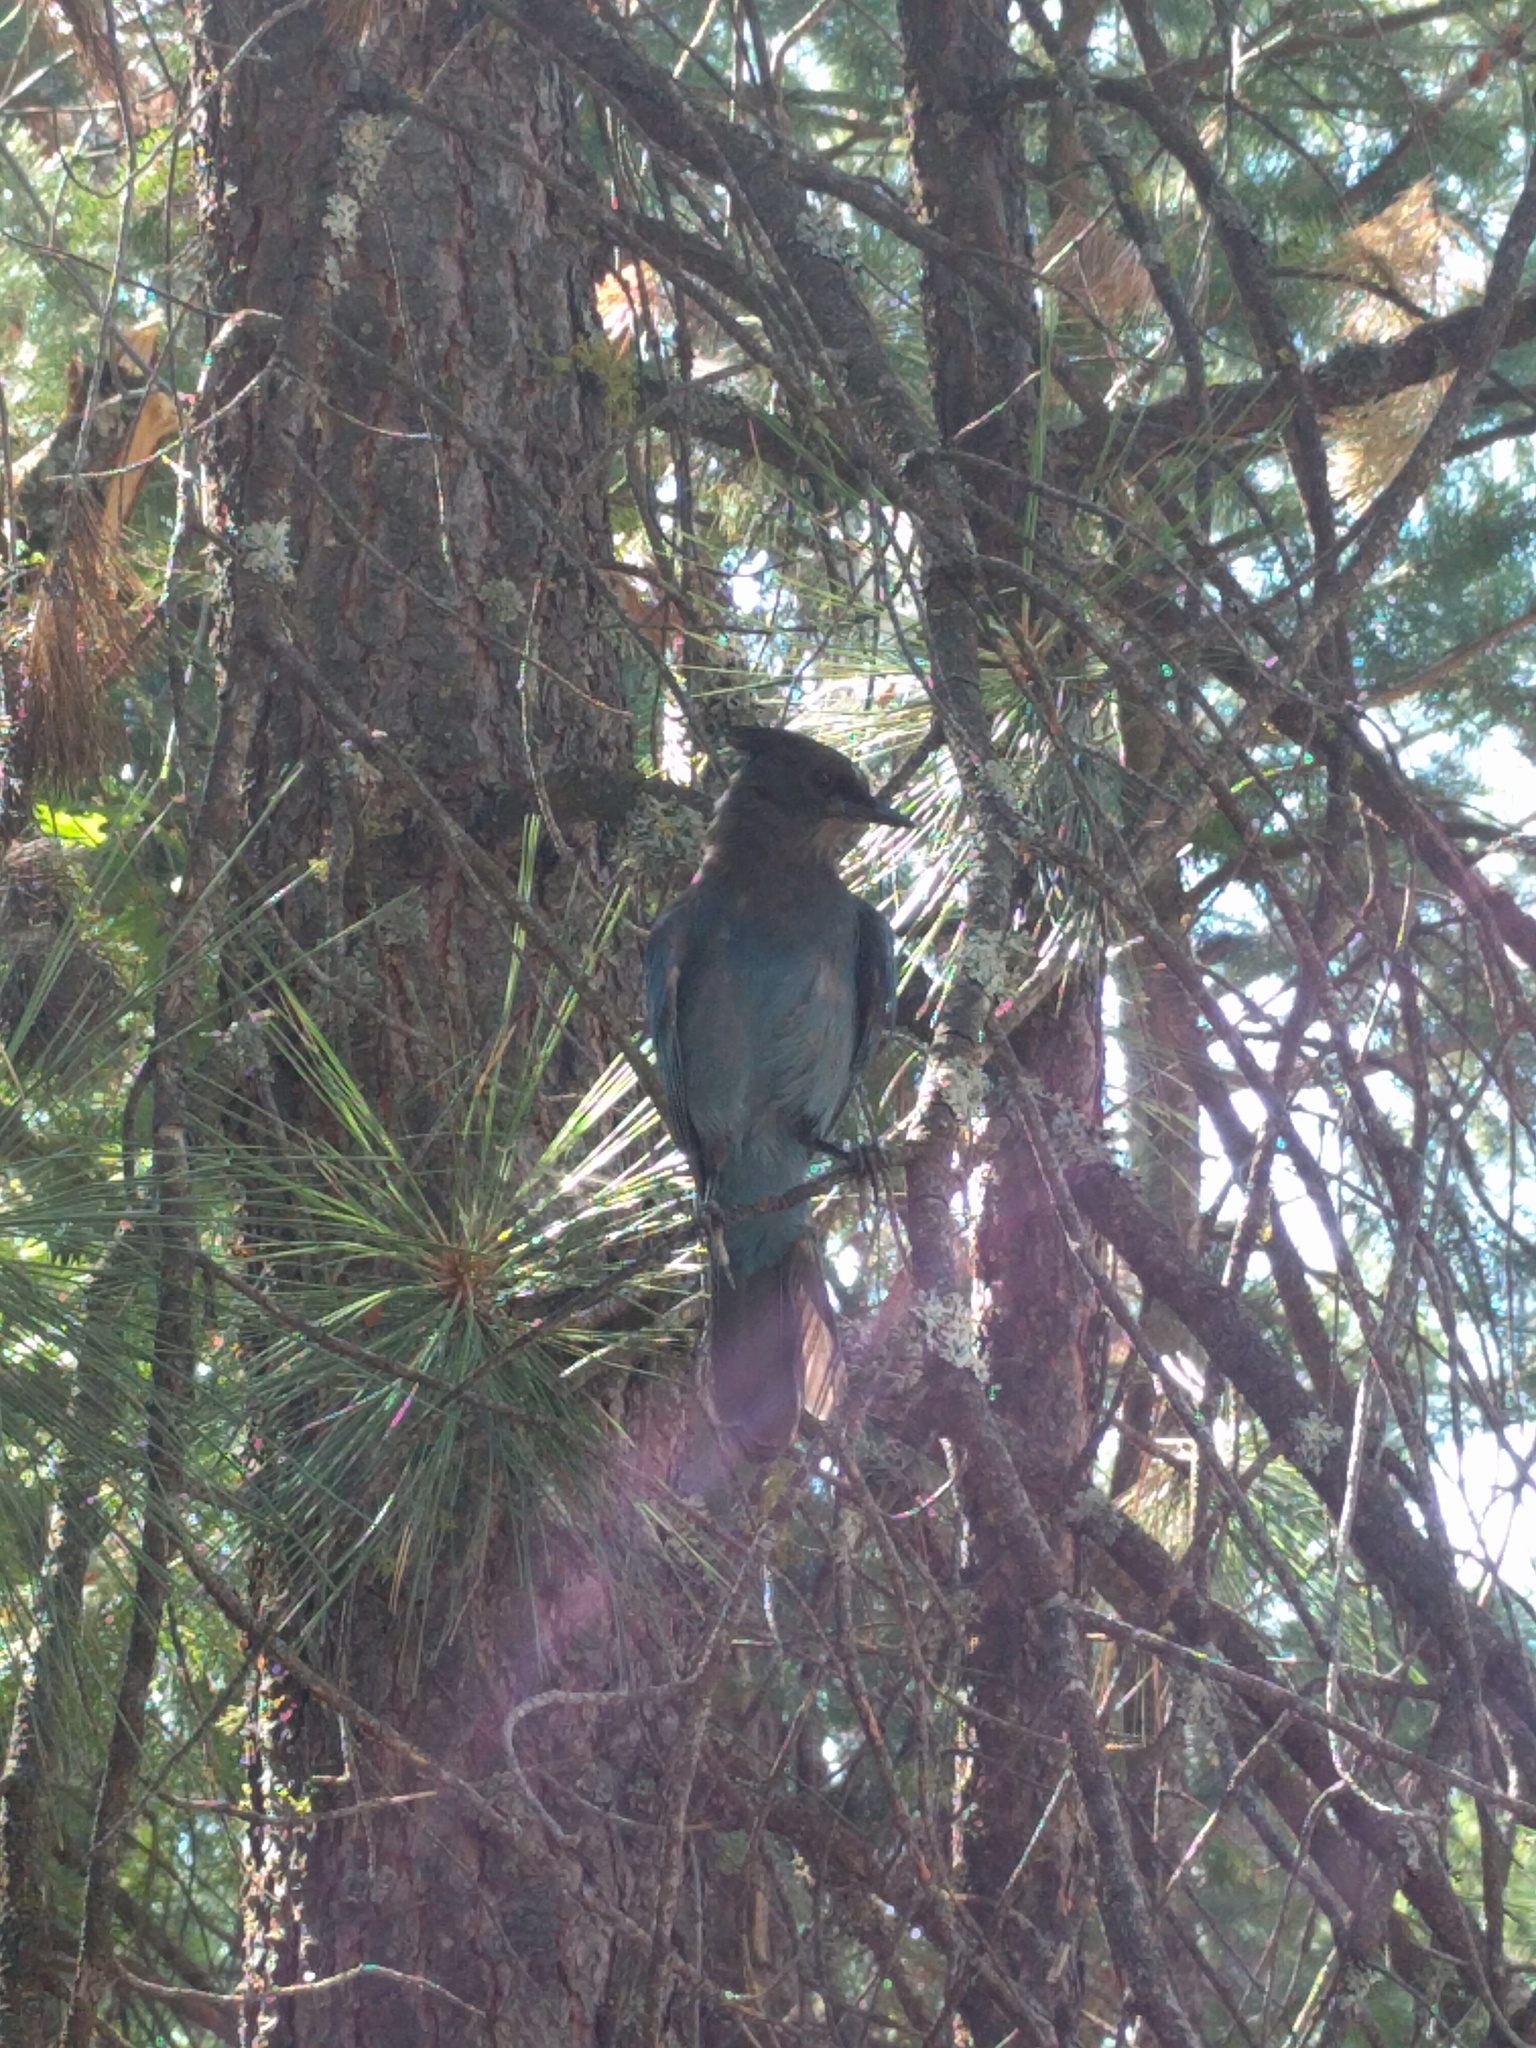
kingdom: Animalia
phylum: Chordata
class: Aves
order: Passeriformes
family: Corvidae
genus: Cyanocitta
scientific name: Cyanocitta stelleri
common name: Steller's jay
